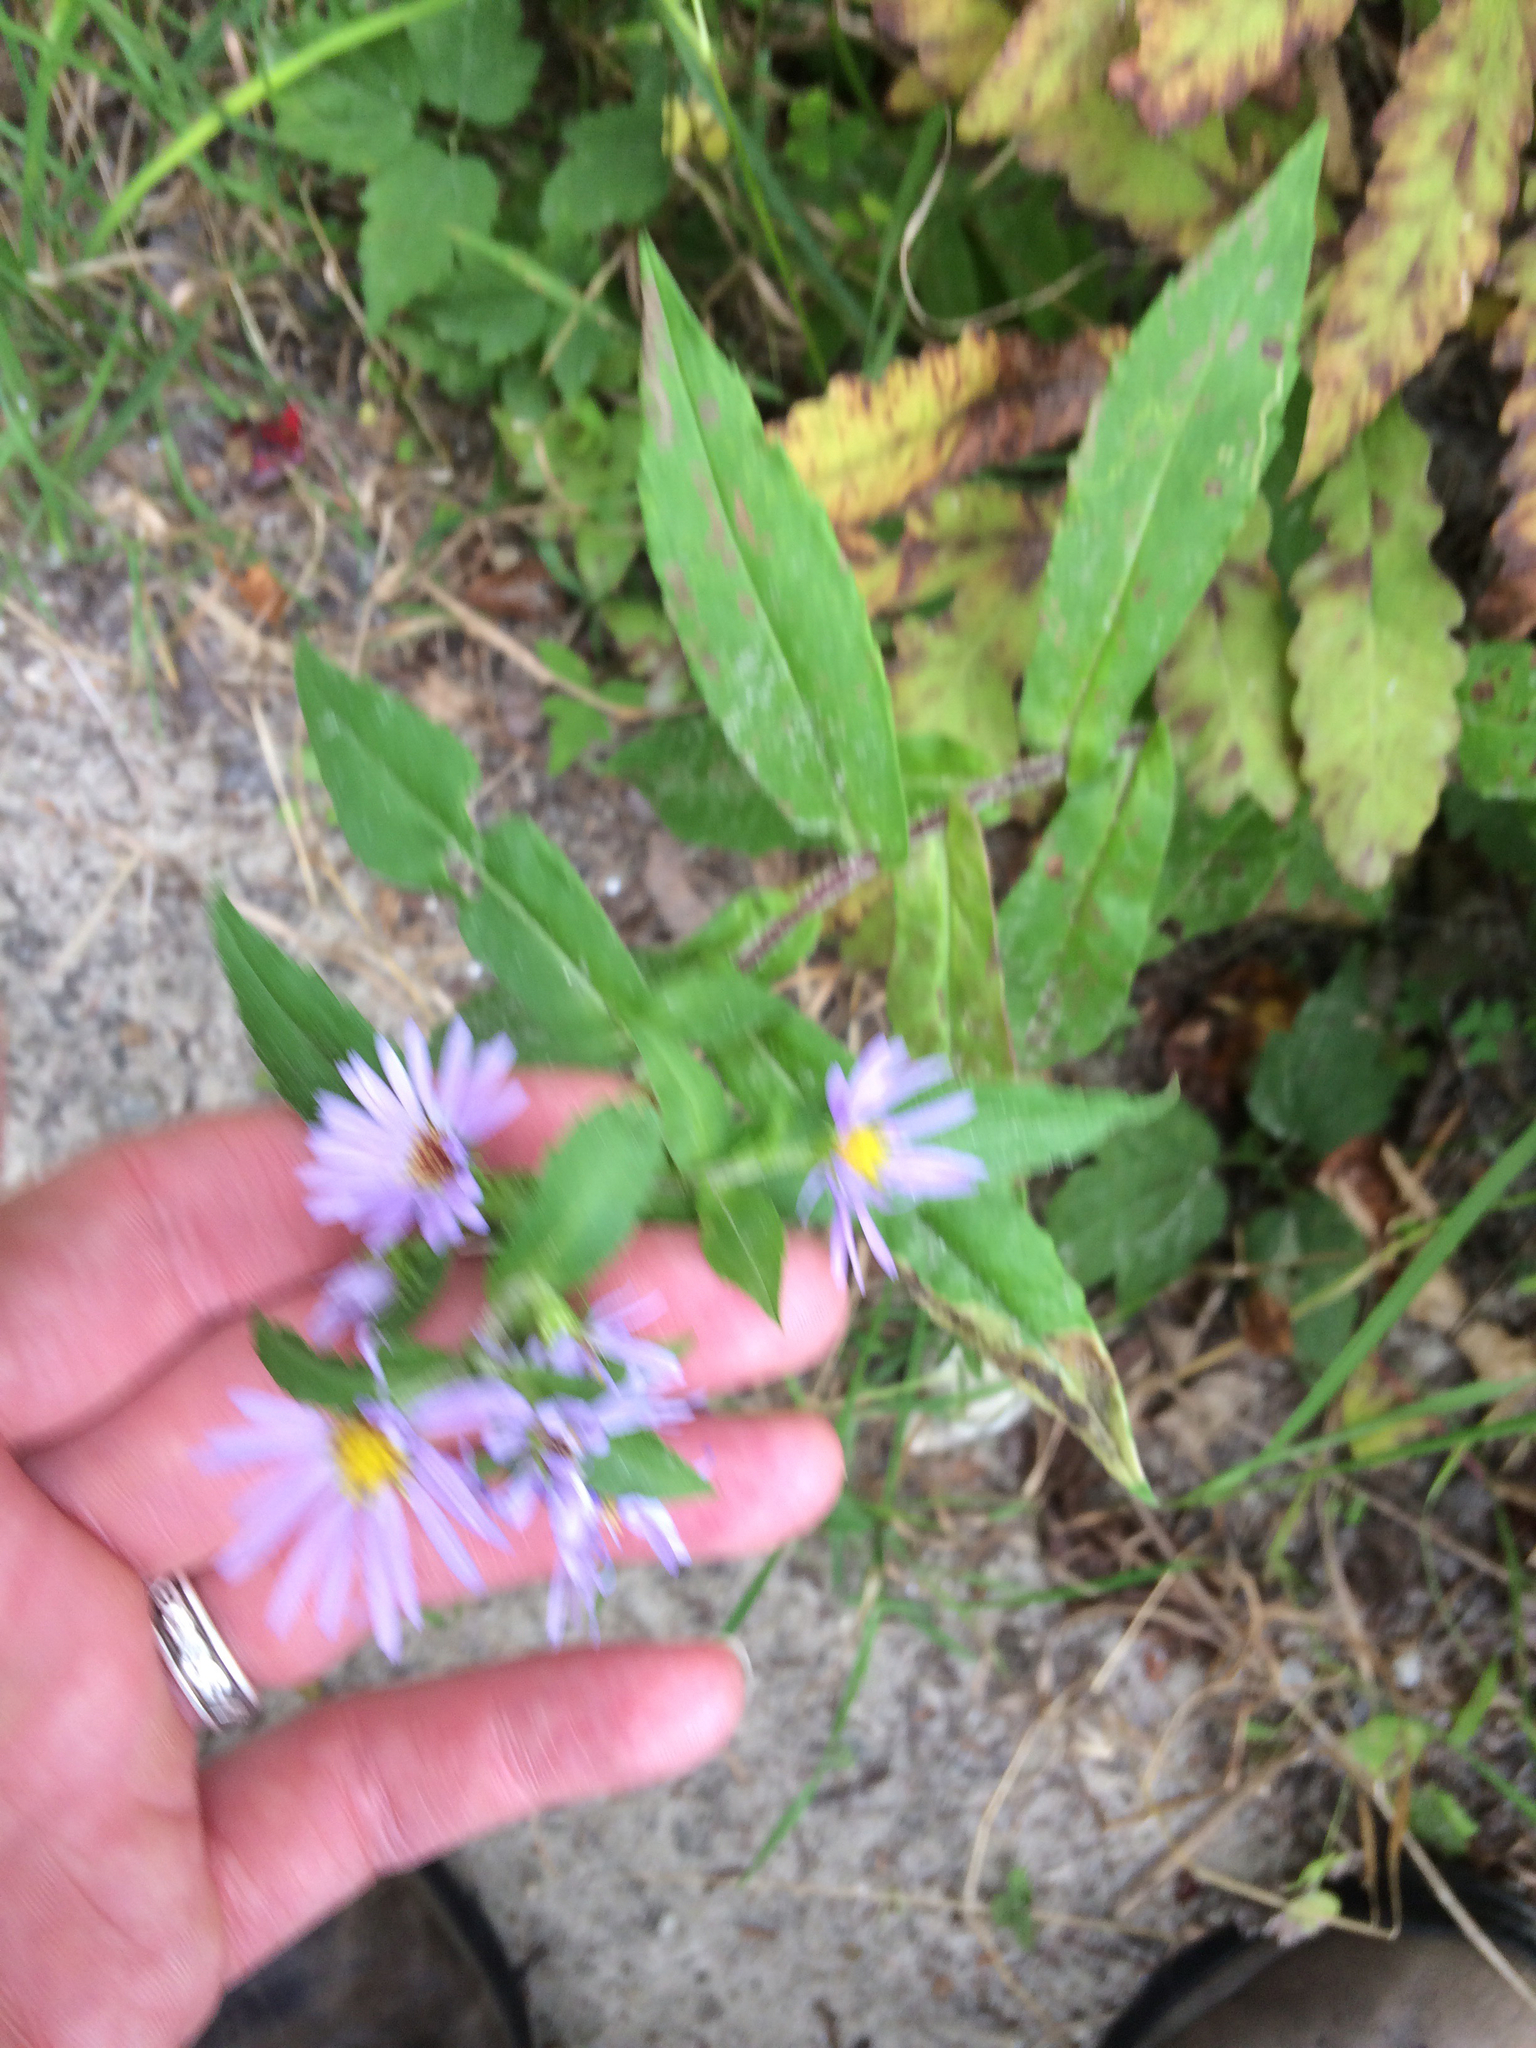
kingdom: Plantae
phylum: Tracheophyta
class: Magnoliopsida
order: Asterales
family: Asteraceae
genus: Symphyotrichum
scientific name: Symphyotrichum puniceum
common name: Bog aster
